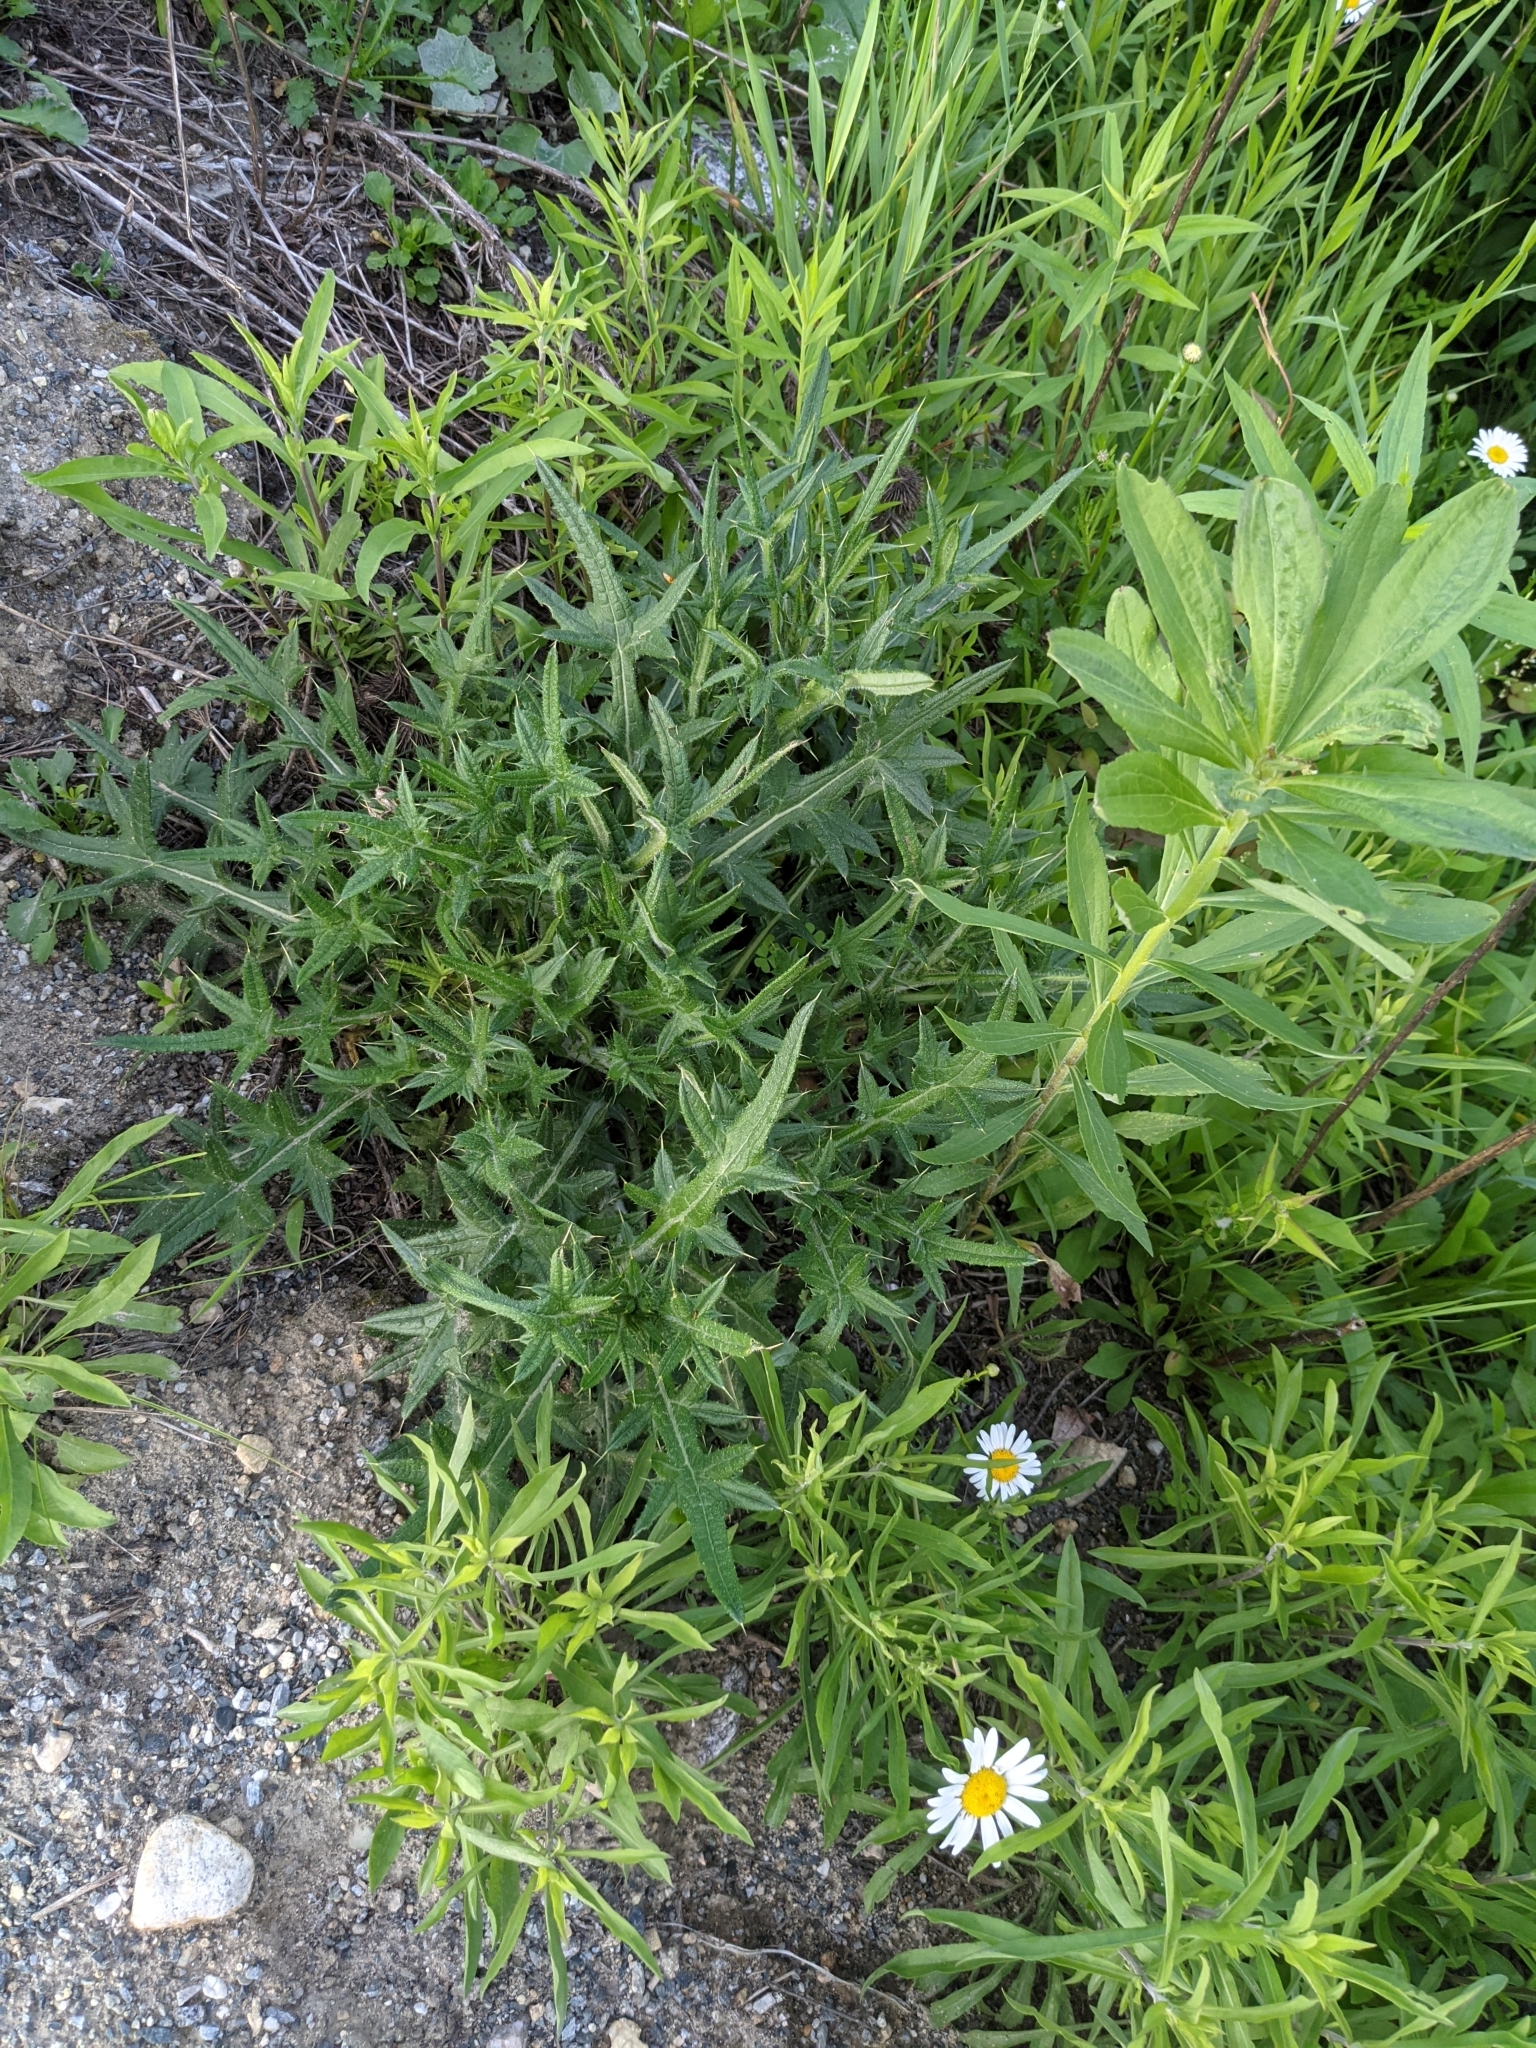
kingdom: Plantae
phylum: Tracheophyta
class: Magnoliopsida
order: Asterales
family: Asteraceae
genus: Cirsium
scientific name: Cirsium vulgare
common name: Bull thistle
